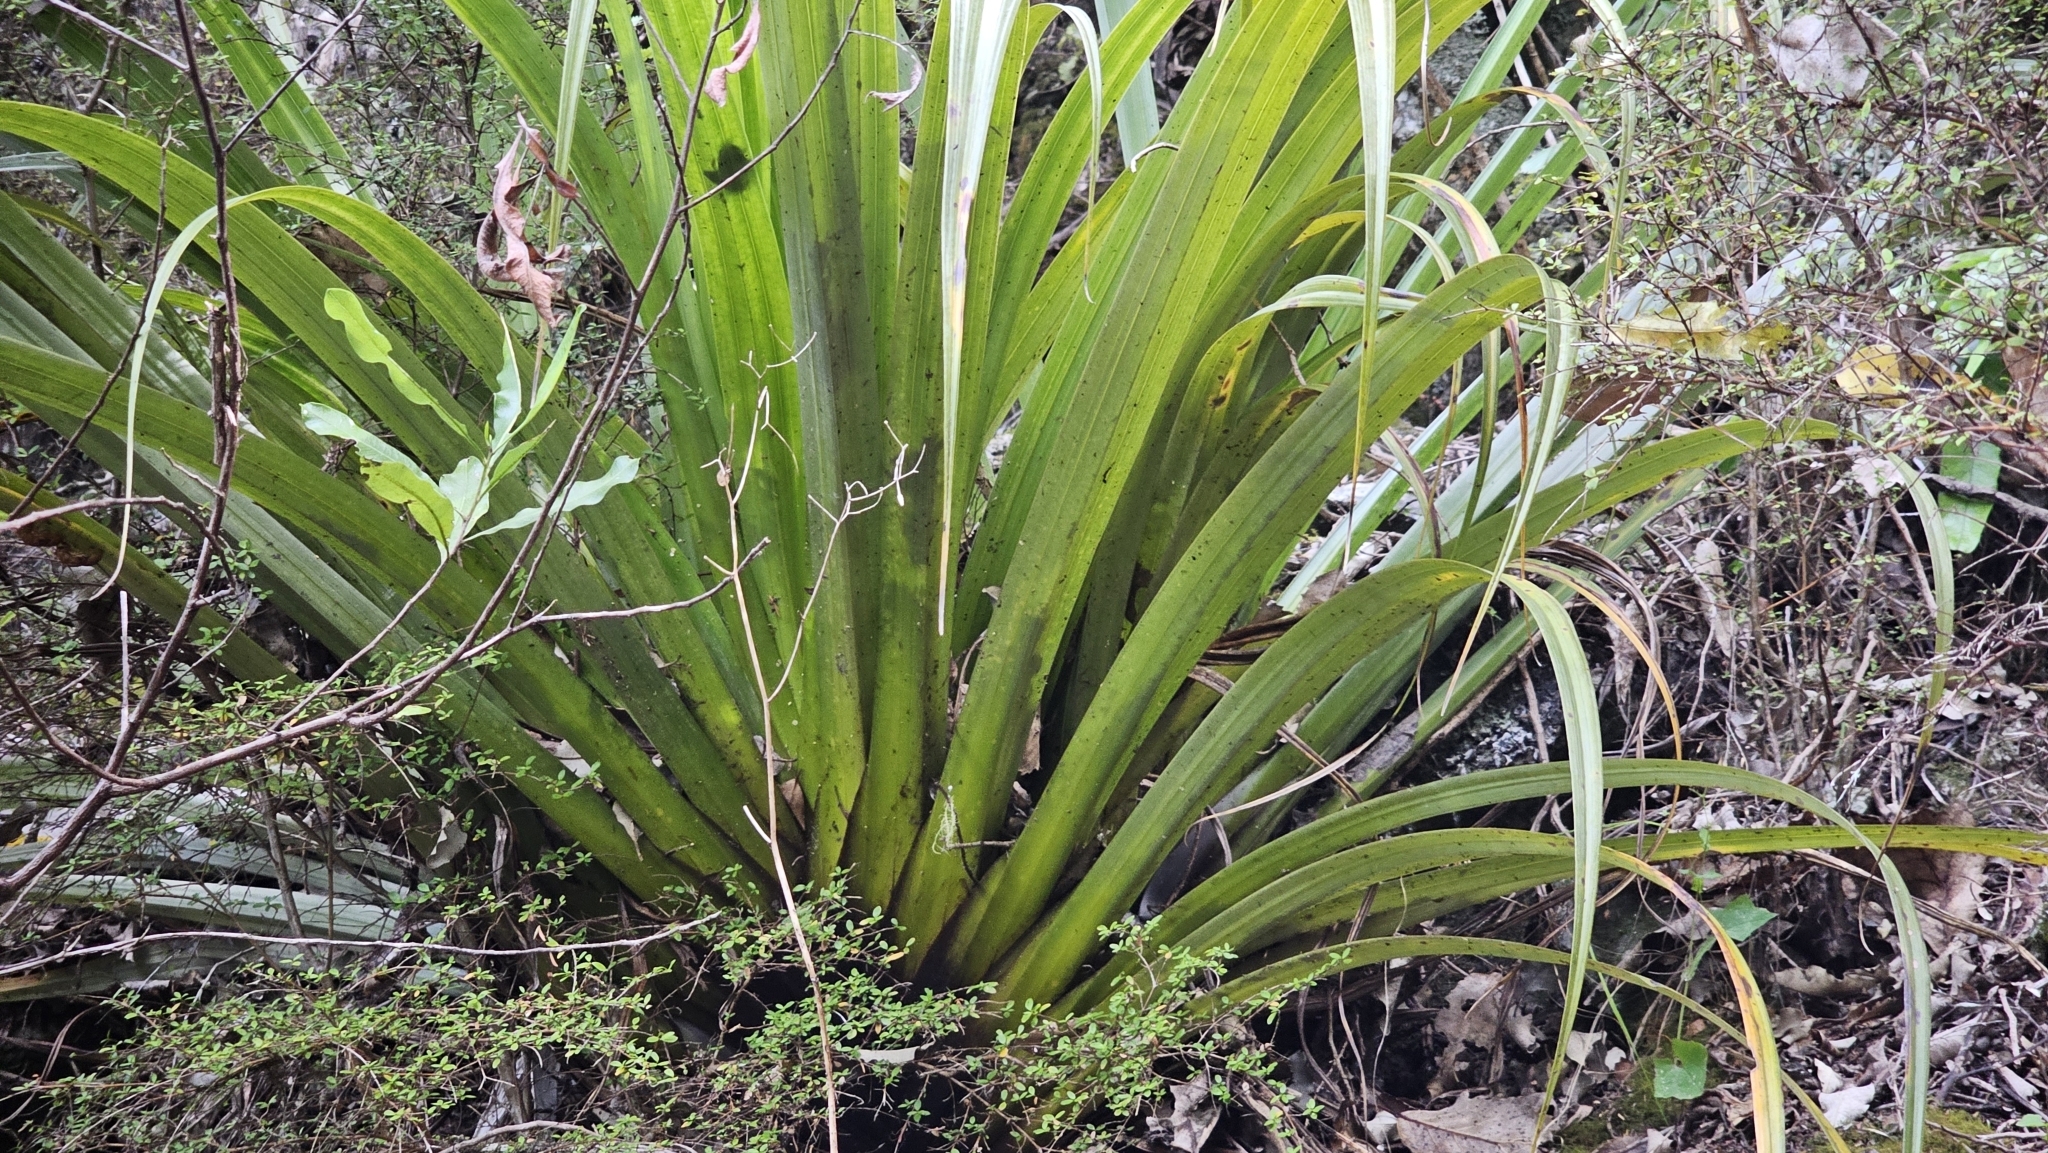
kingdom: Plantae
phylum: Tracheophyta
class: Liliopsida
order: Asparagales
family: Asteliaceae
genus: Astelia
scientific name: Astelia hastata
